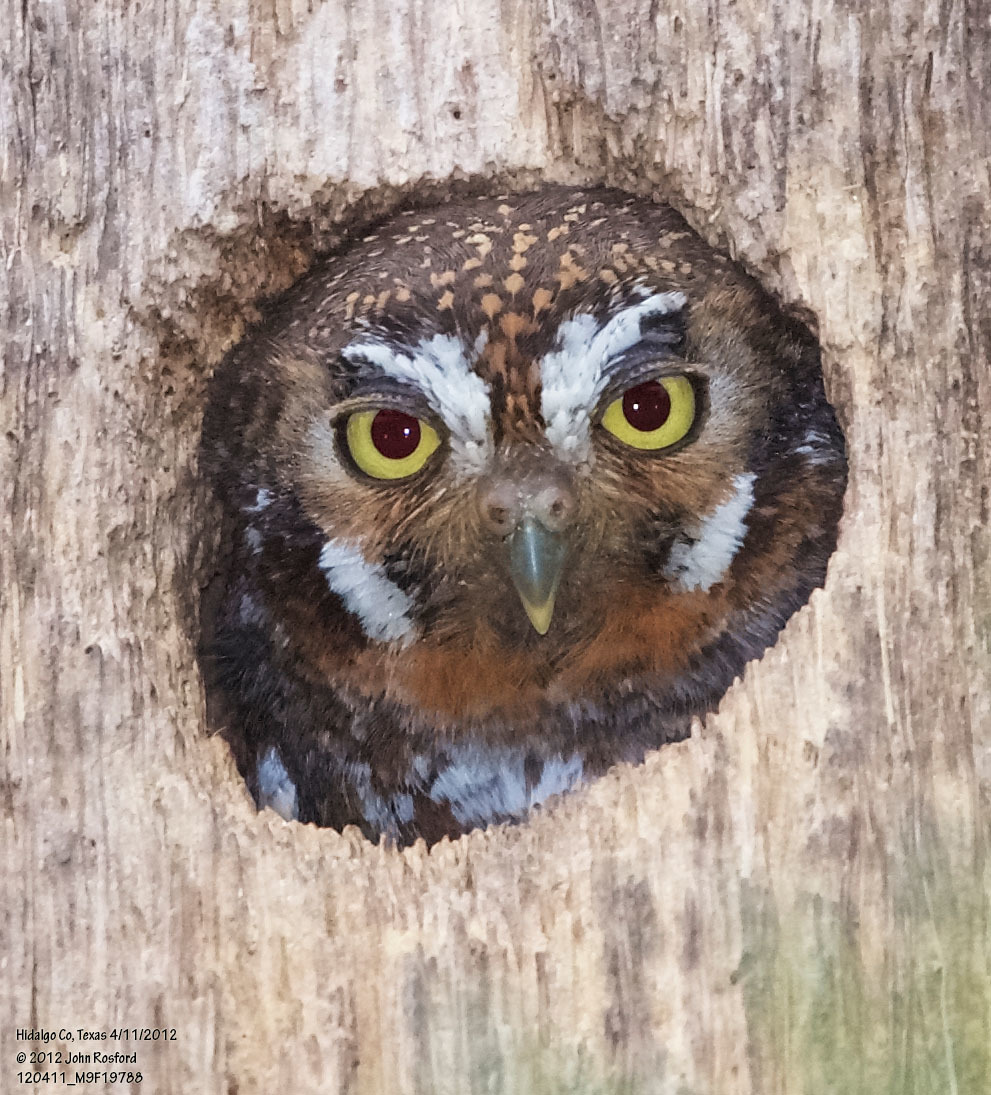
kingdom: Animalia
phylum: Chordata
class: Aves
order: Strigiformes
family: Strigidae
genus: Micrathene
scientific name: Micrathene whitneyi
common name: Elf owl
